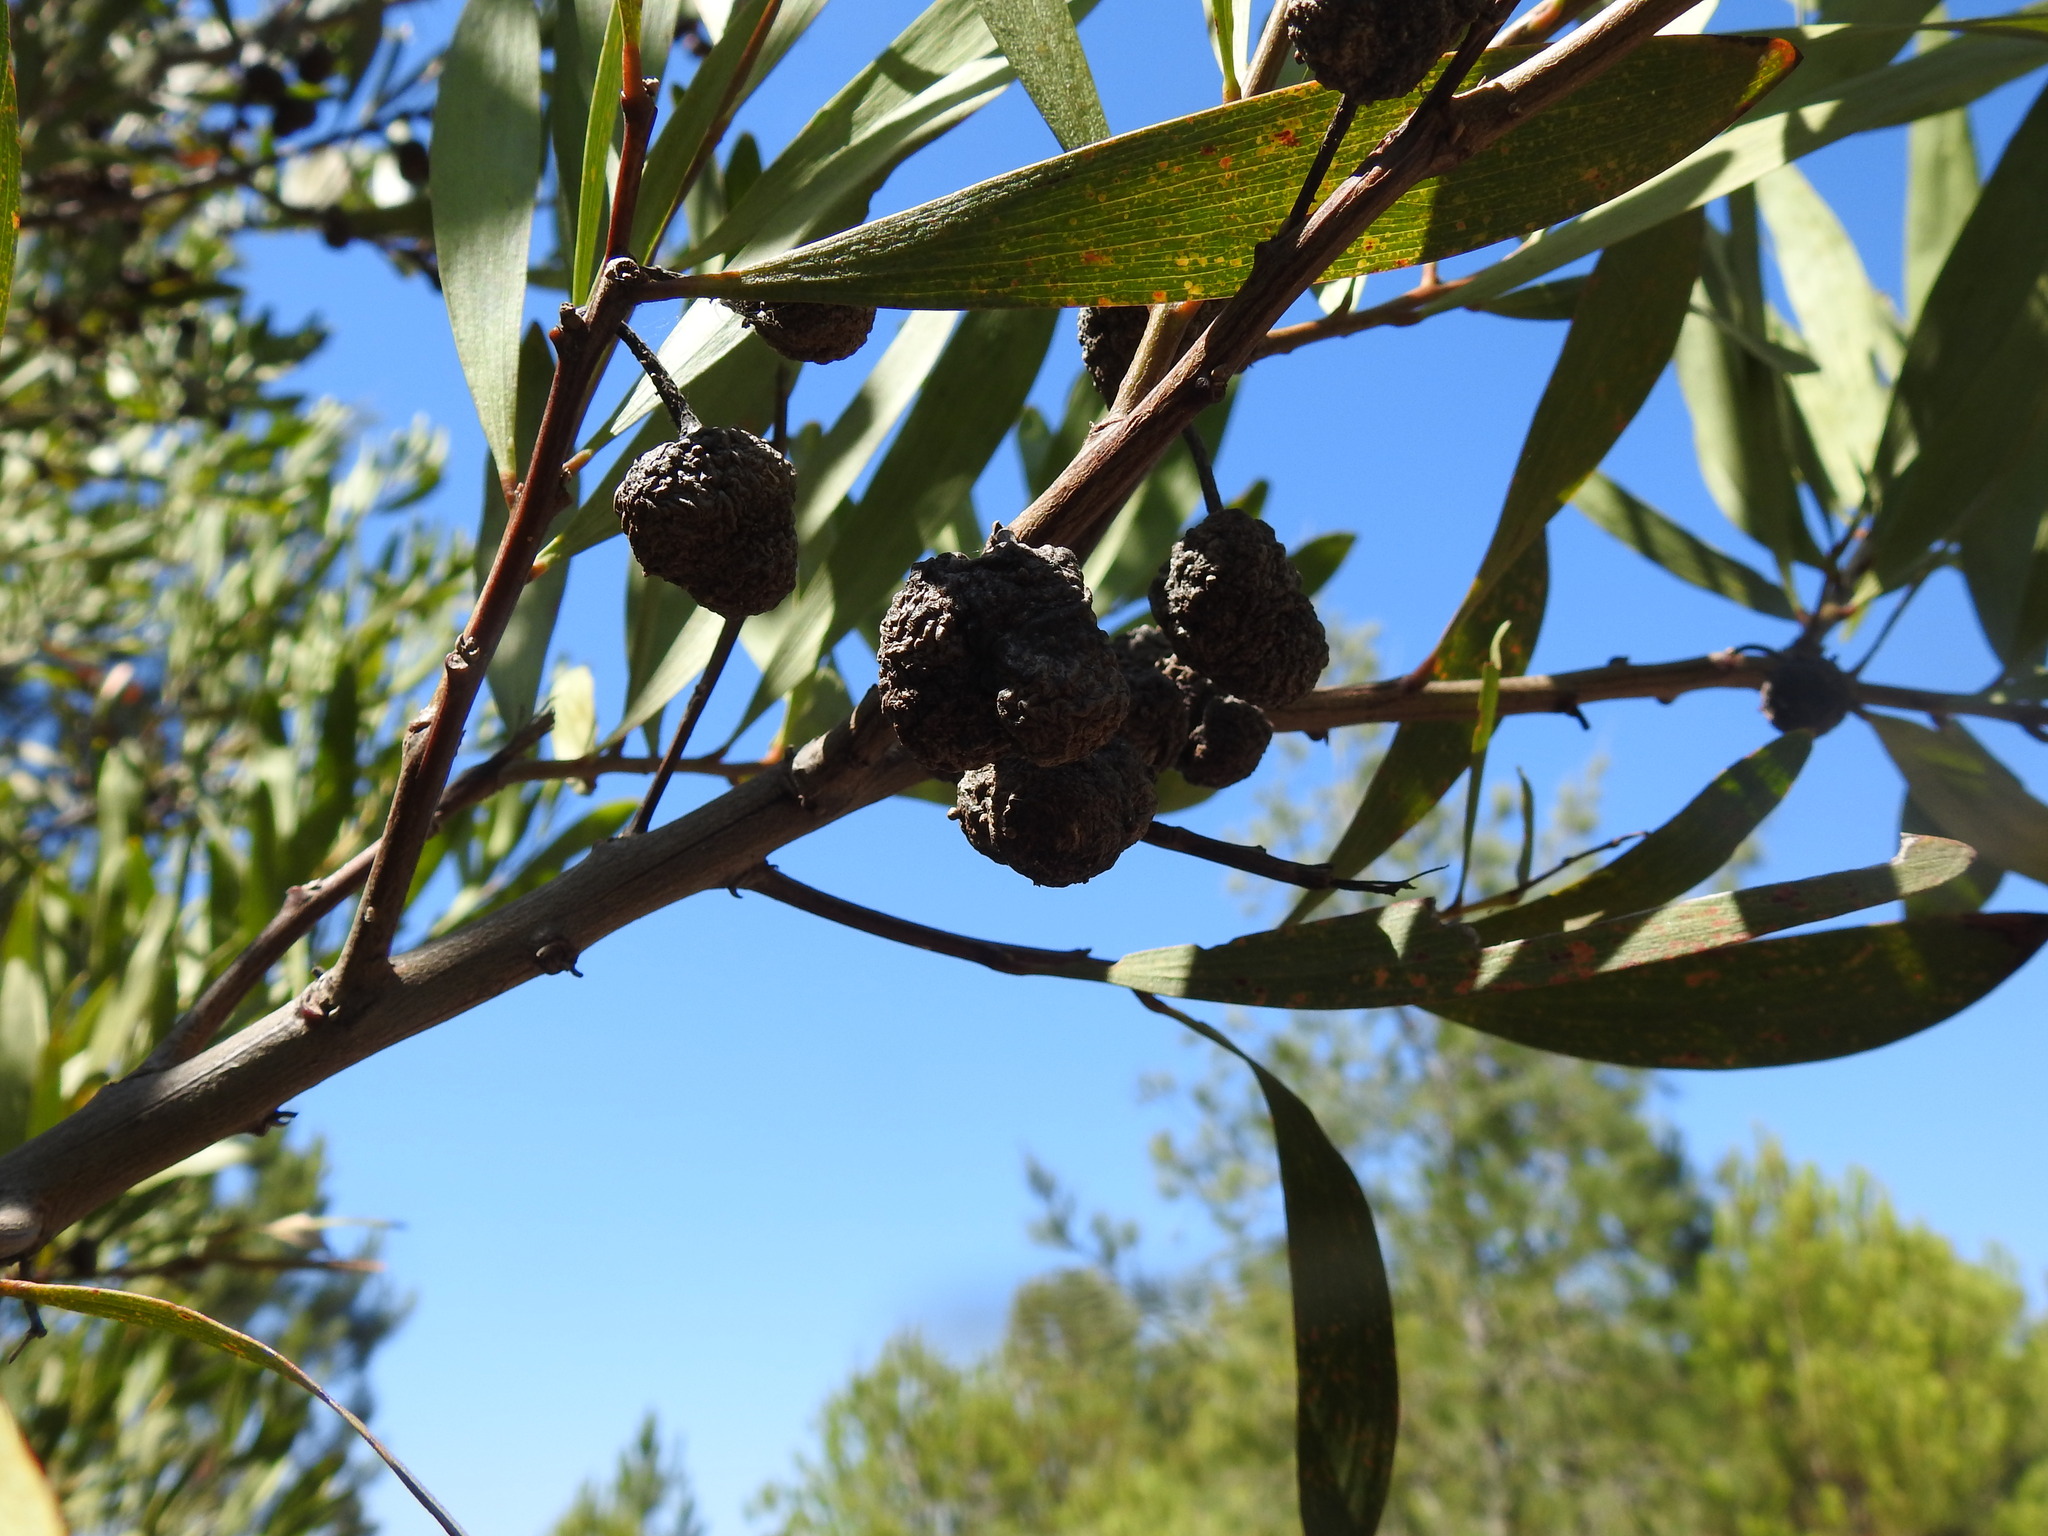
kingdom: Animalia
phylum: Arthropoda
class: Insecta
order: Hymenoptera
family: Pteromalidae
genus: Trichilogaster
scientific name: Trichilogaster acaciaelongifoliae
